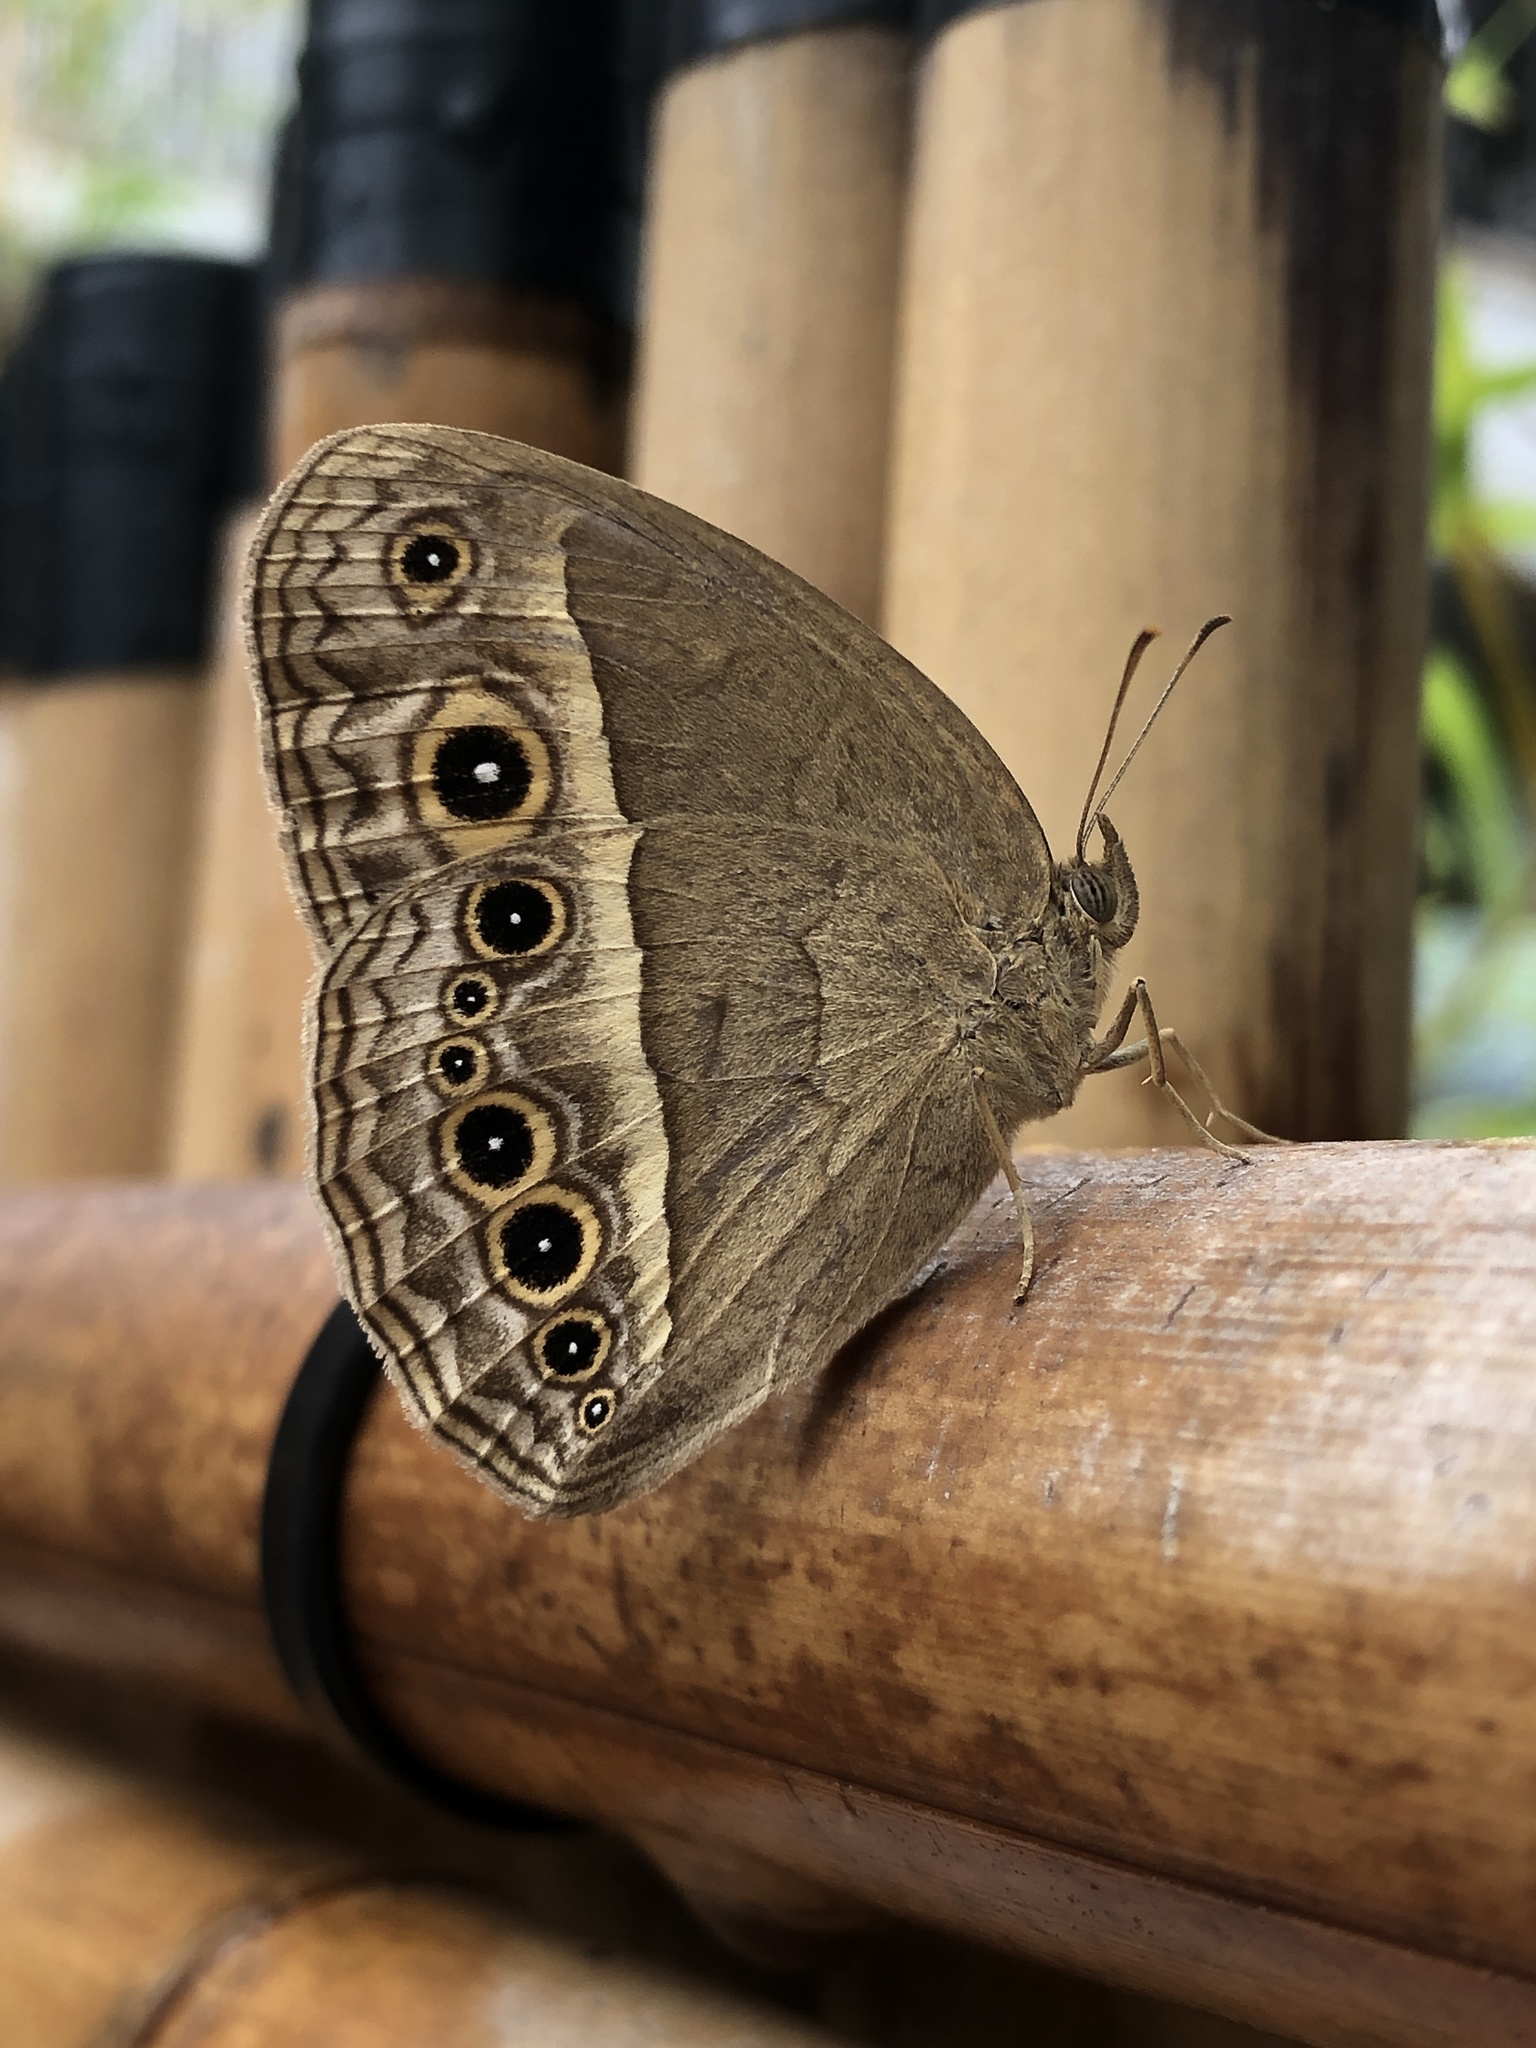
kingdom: Animalia
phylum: Arthropoda
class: Insecta
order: Lepidoptera
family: Nymphalidae
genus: Mycalesis
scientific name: Mycalesis mineus
